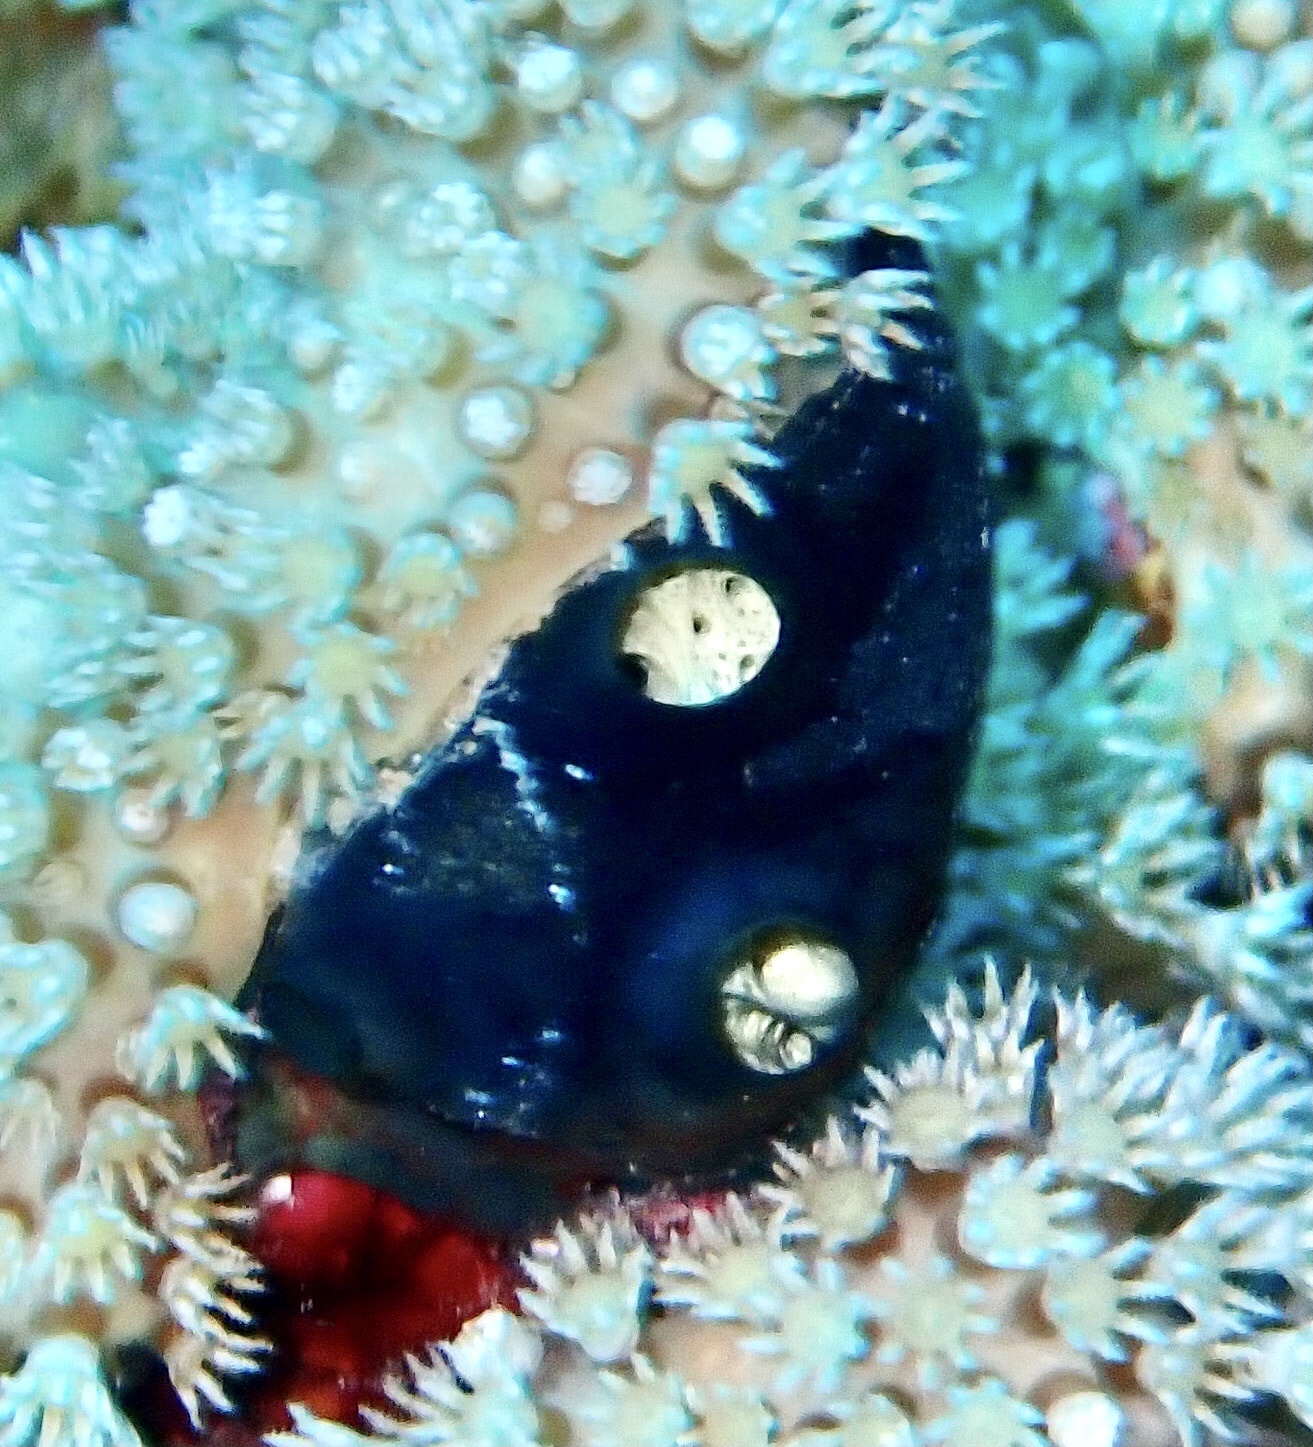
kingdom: Animalia
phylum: Porifera
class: Demospongiae
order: Poecilosclerida
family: Hymedesmiidae
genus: Hemimycale
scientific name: Hemimycale arabica
